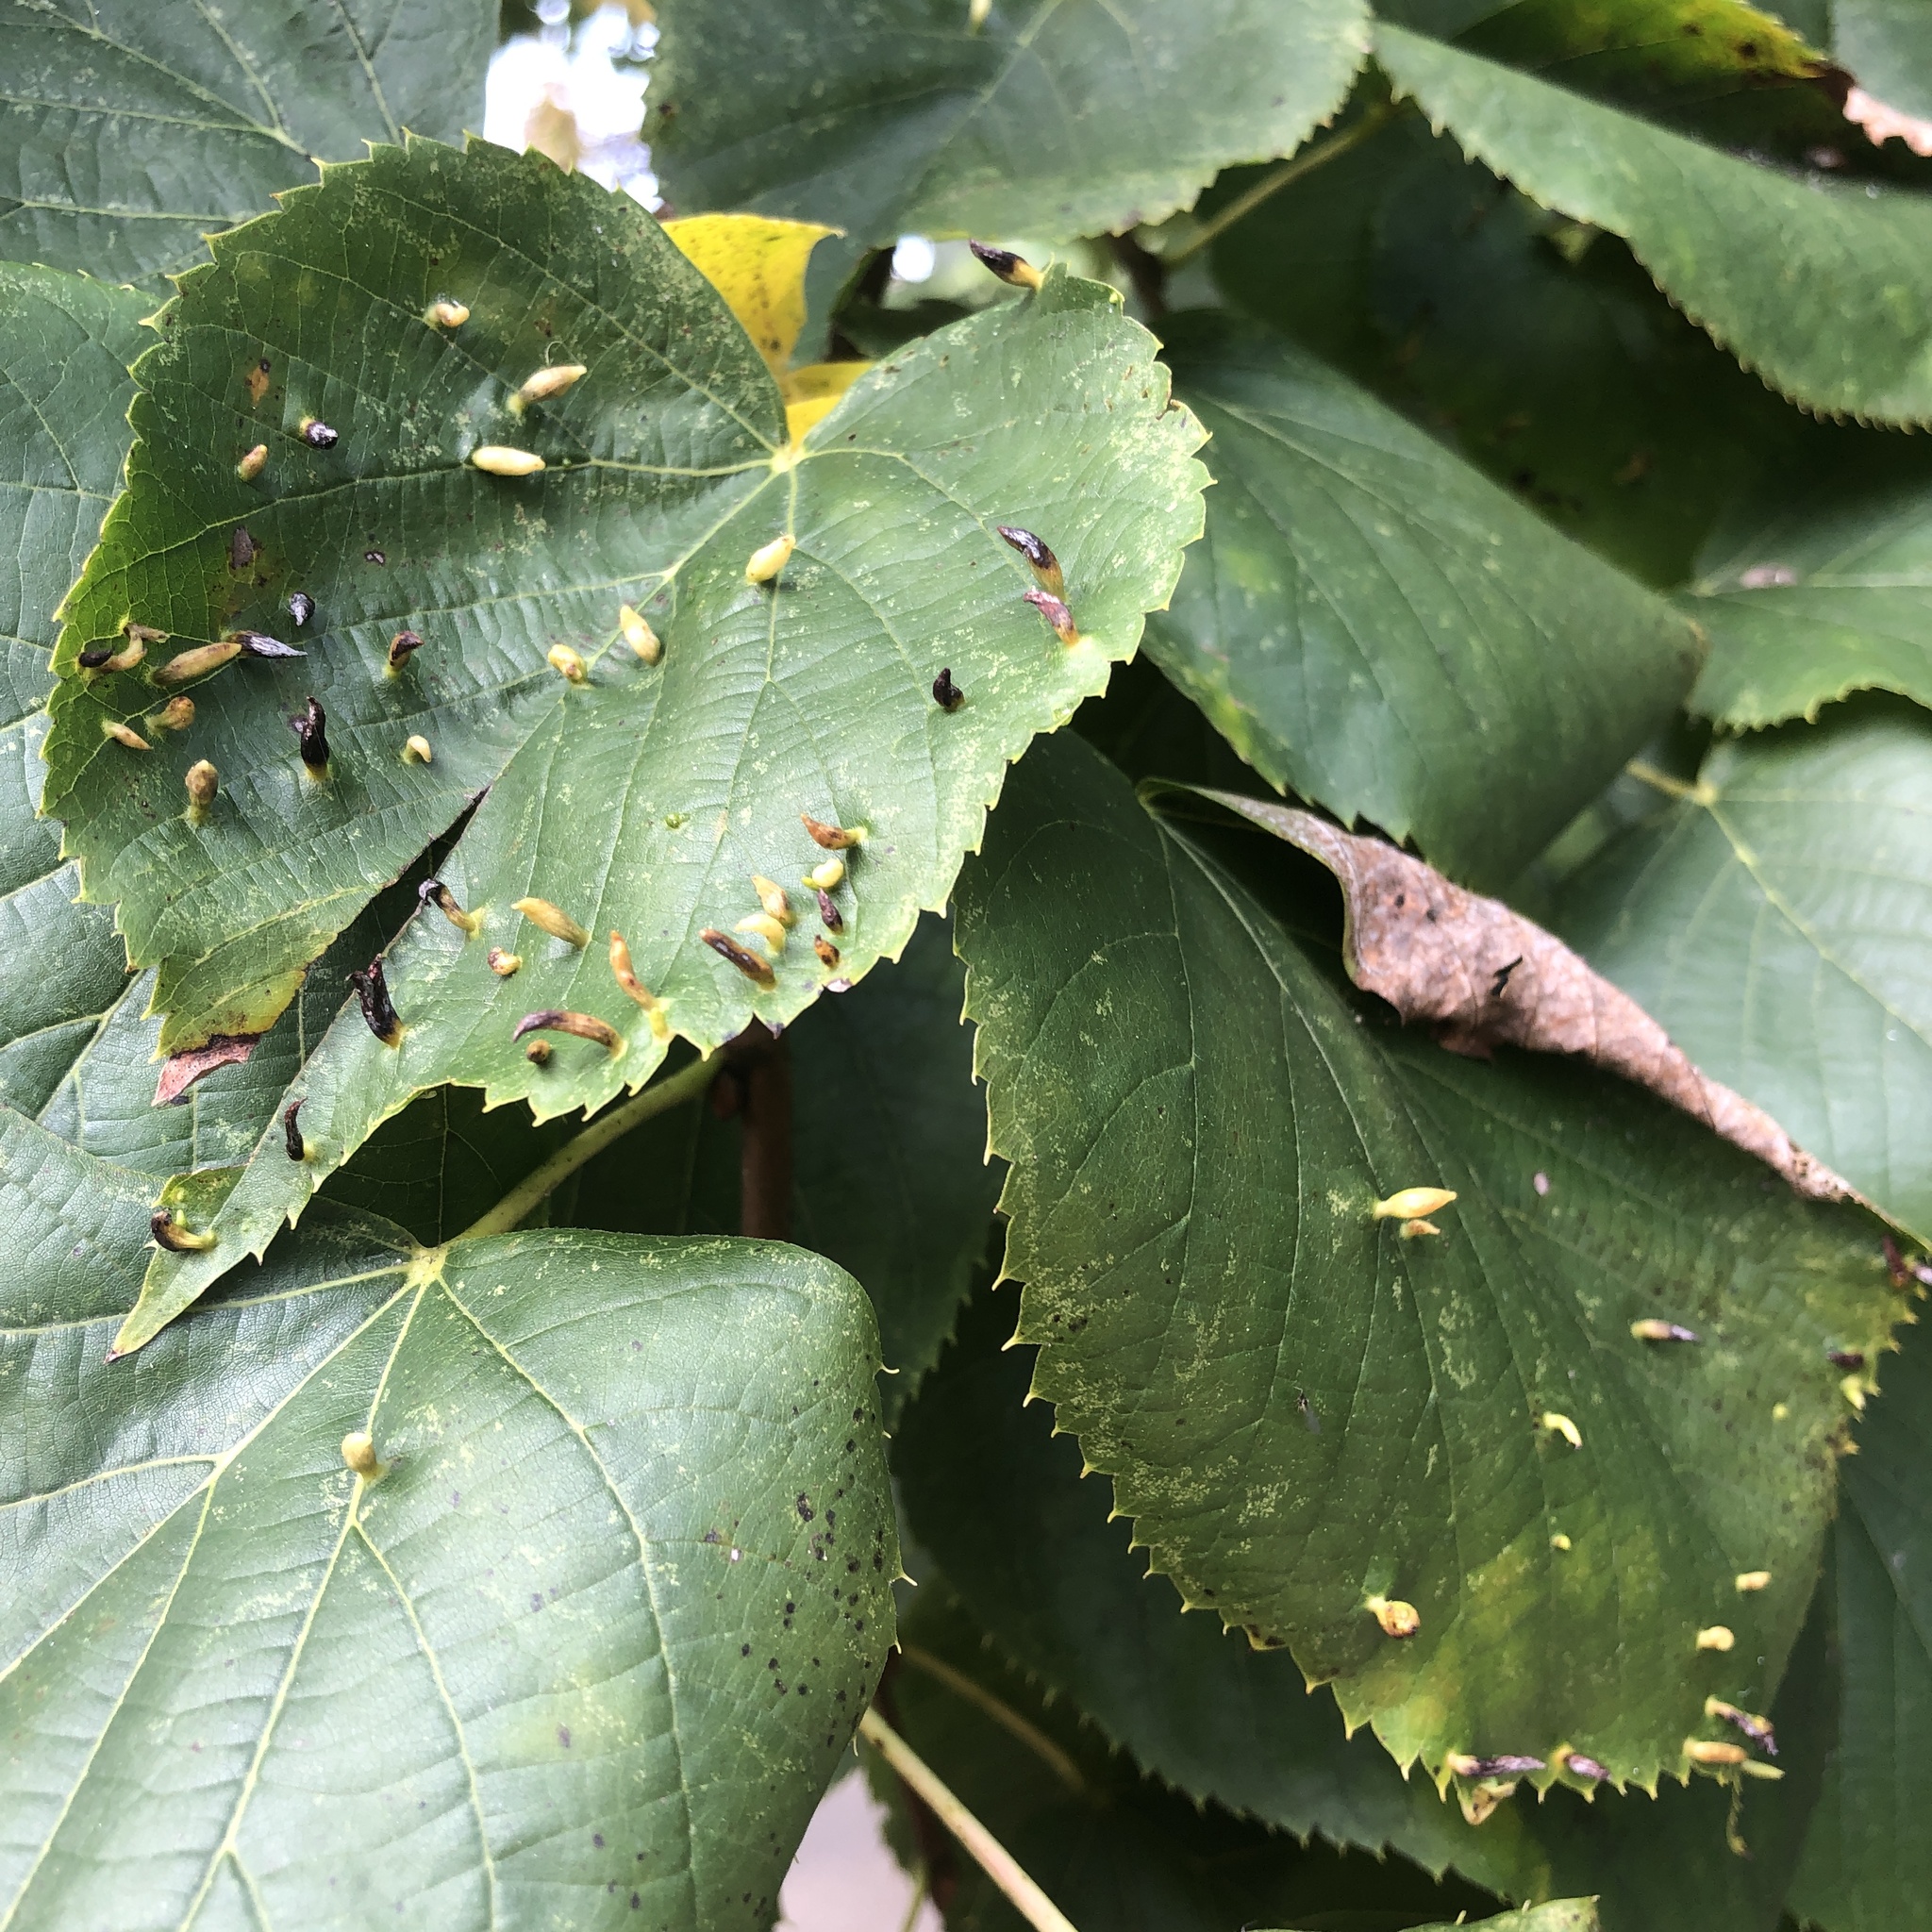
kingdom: Animalia
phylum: Arthropoda
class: Arachnida
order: Trombidiformes
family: Eriophyidae
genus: Eriophyes
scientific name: Eriophyes tiliae
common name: Red nail gall mite
